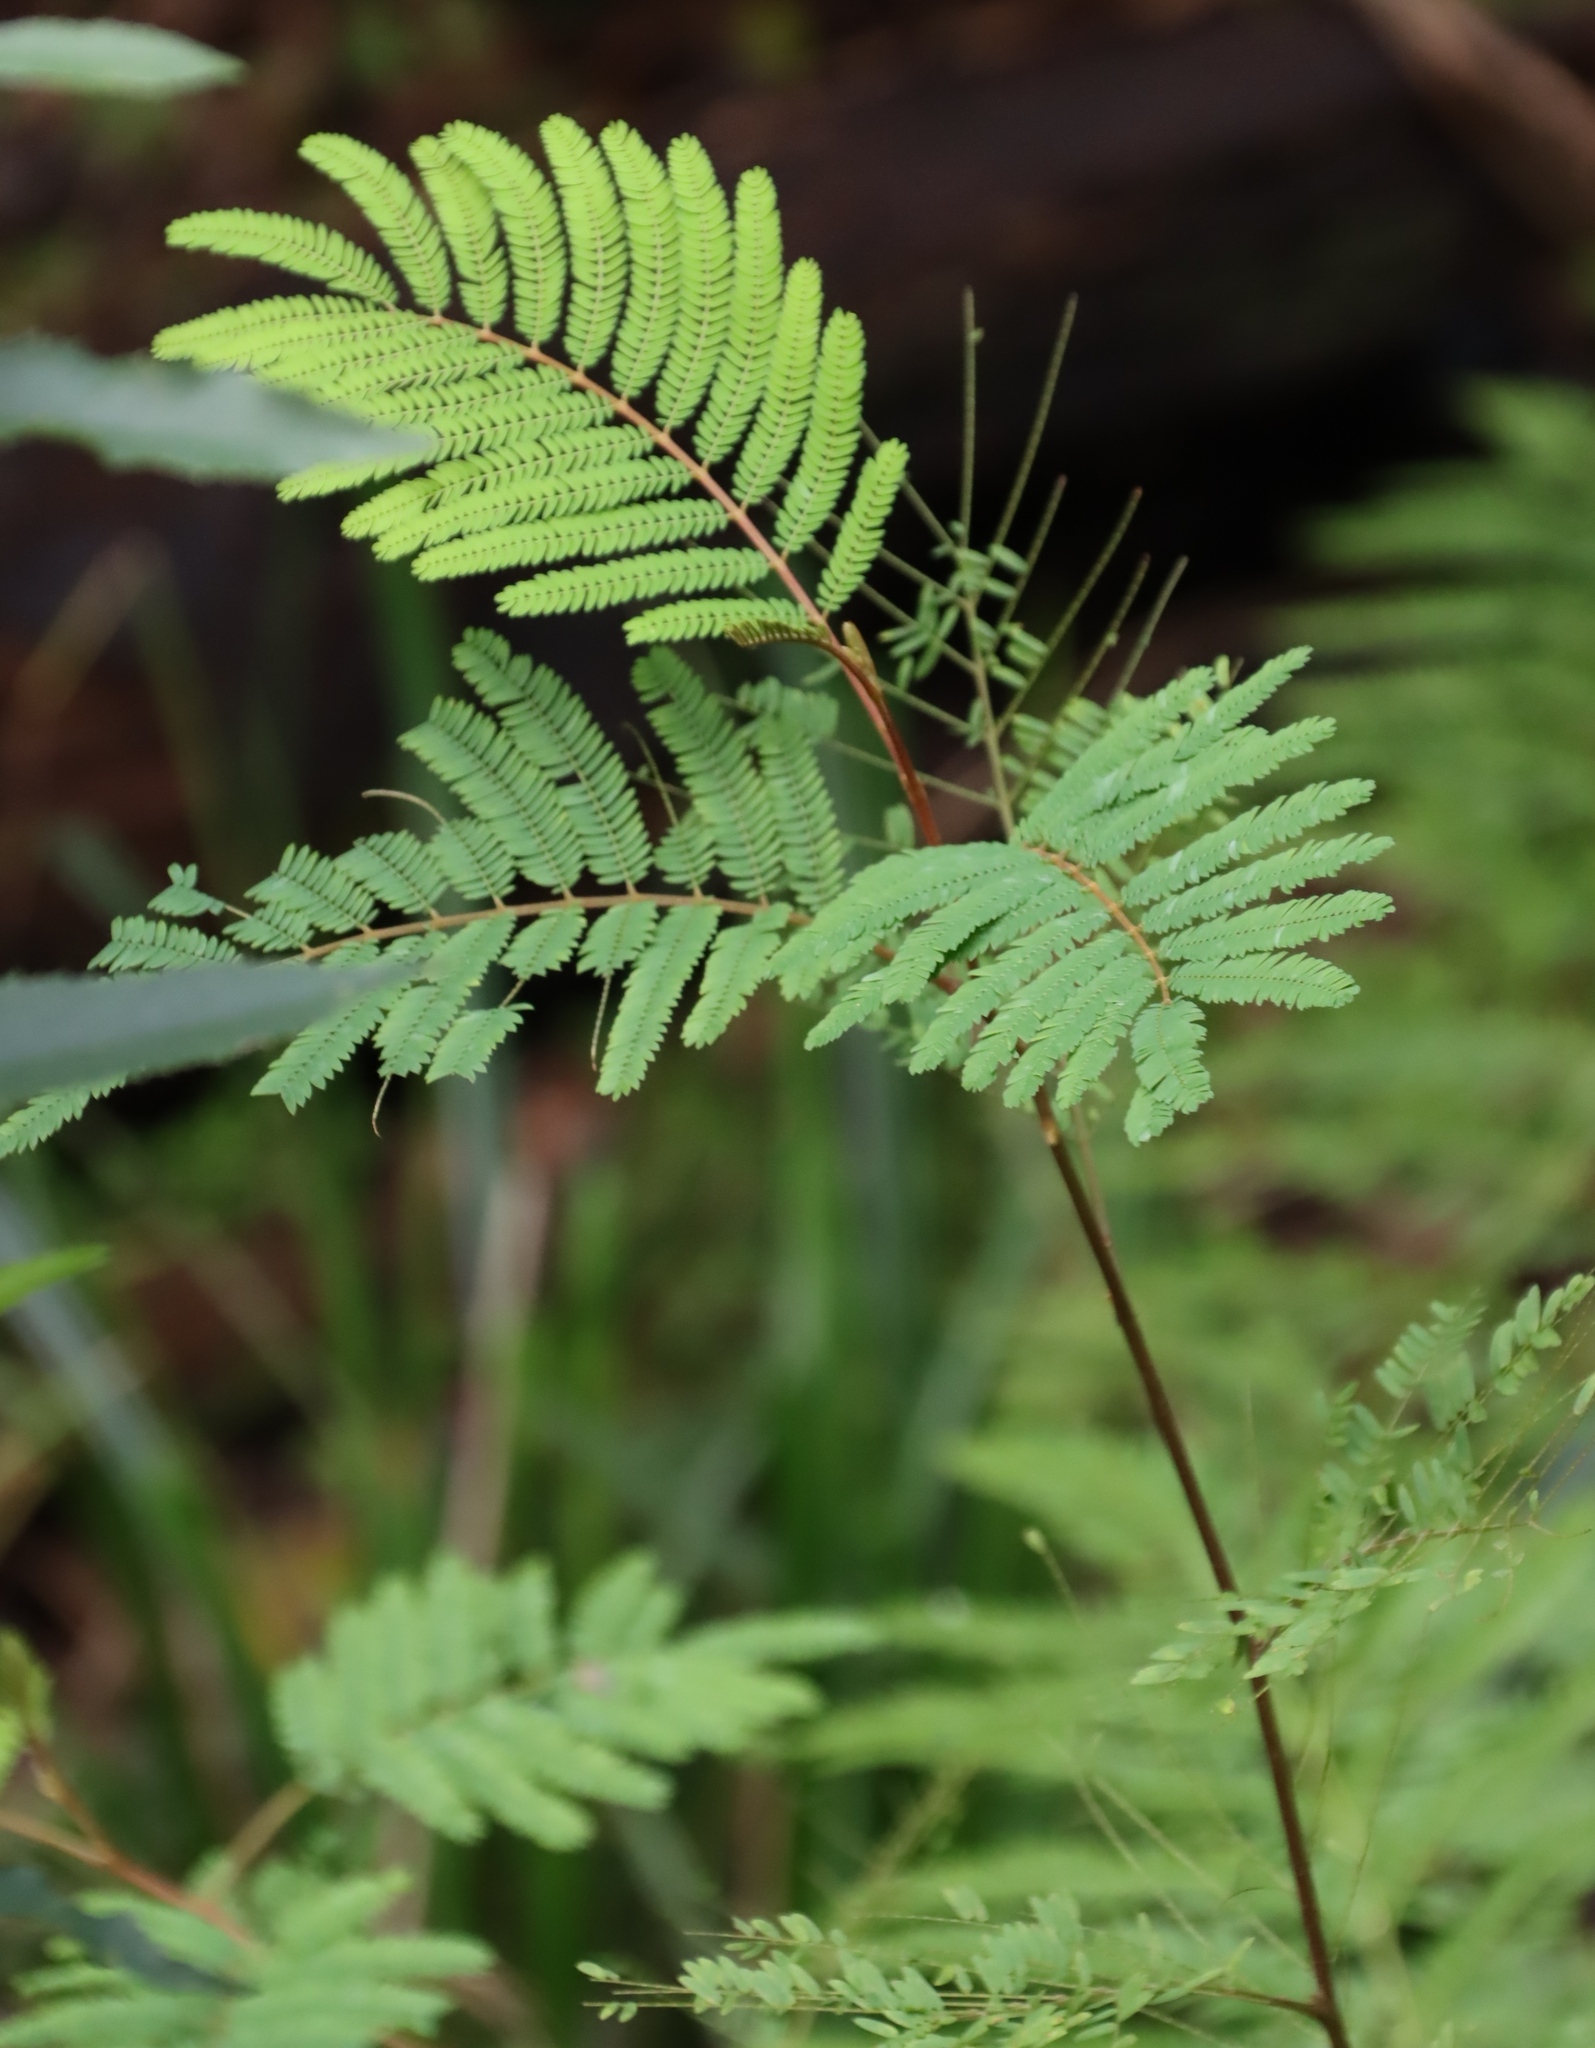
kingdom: Plantae
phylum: Tracheophyta
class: Magnoliopsida
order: Fabales
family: Fabaceae
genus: Paraserianthes
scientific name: Paraserianthes lophantha
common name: Plume albizia
